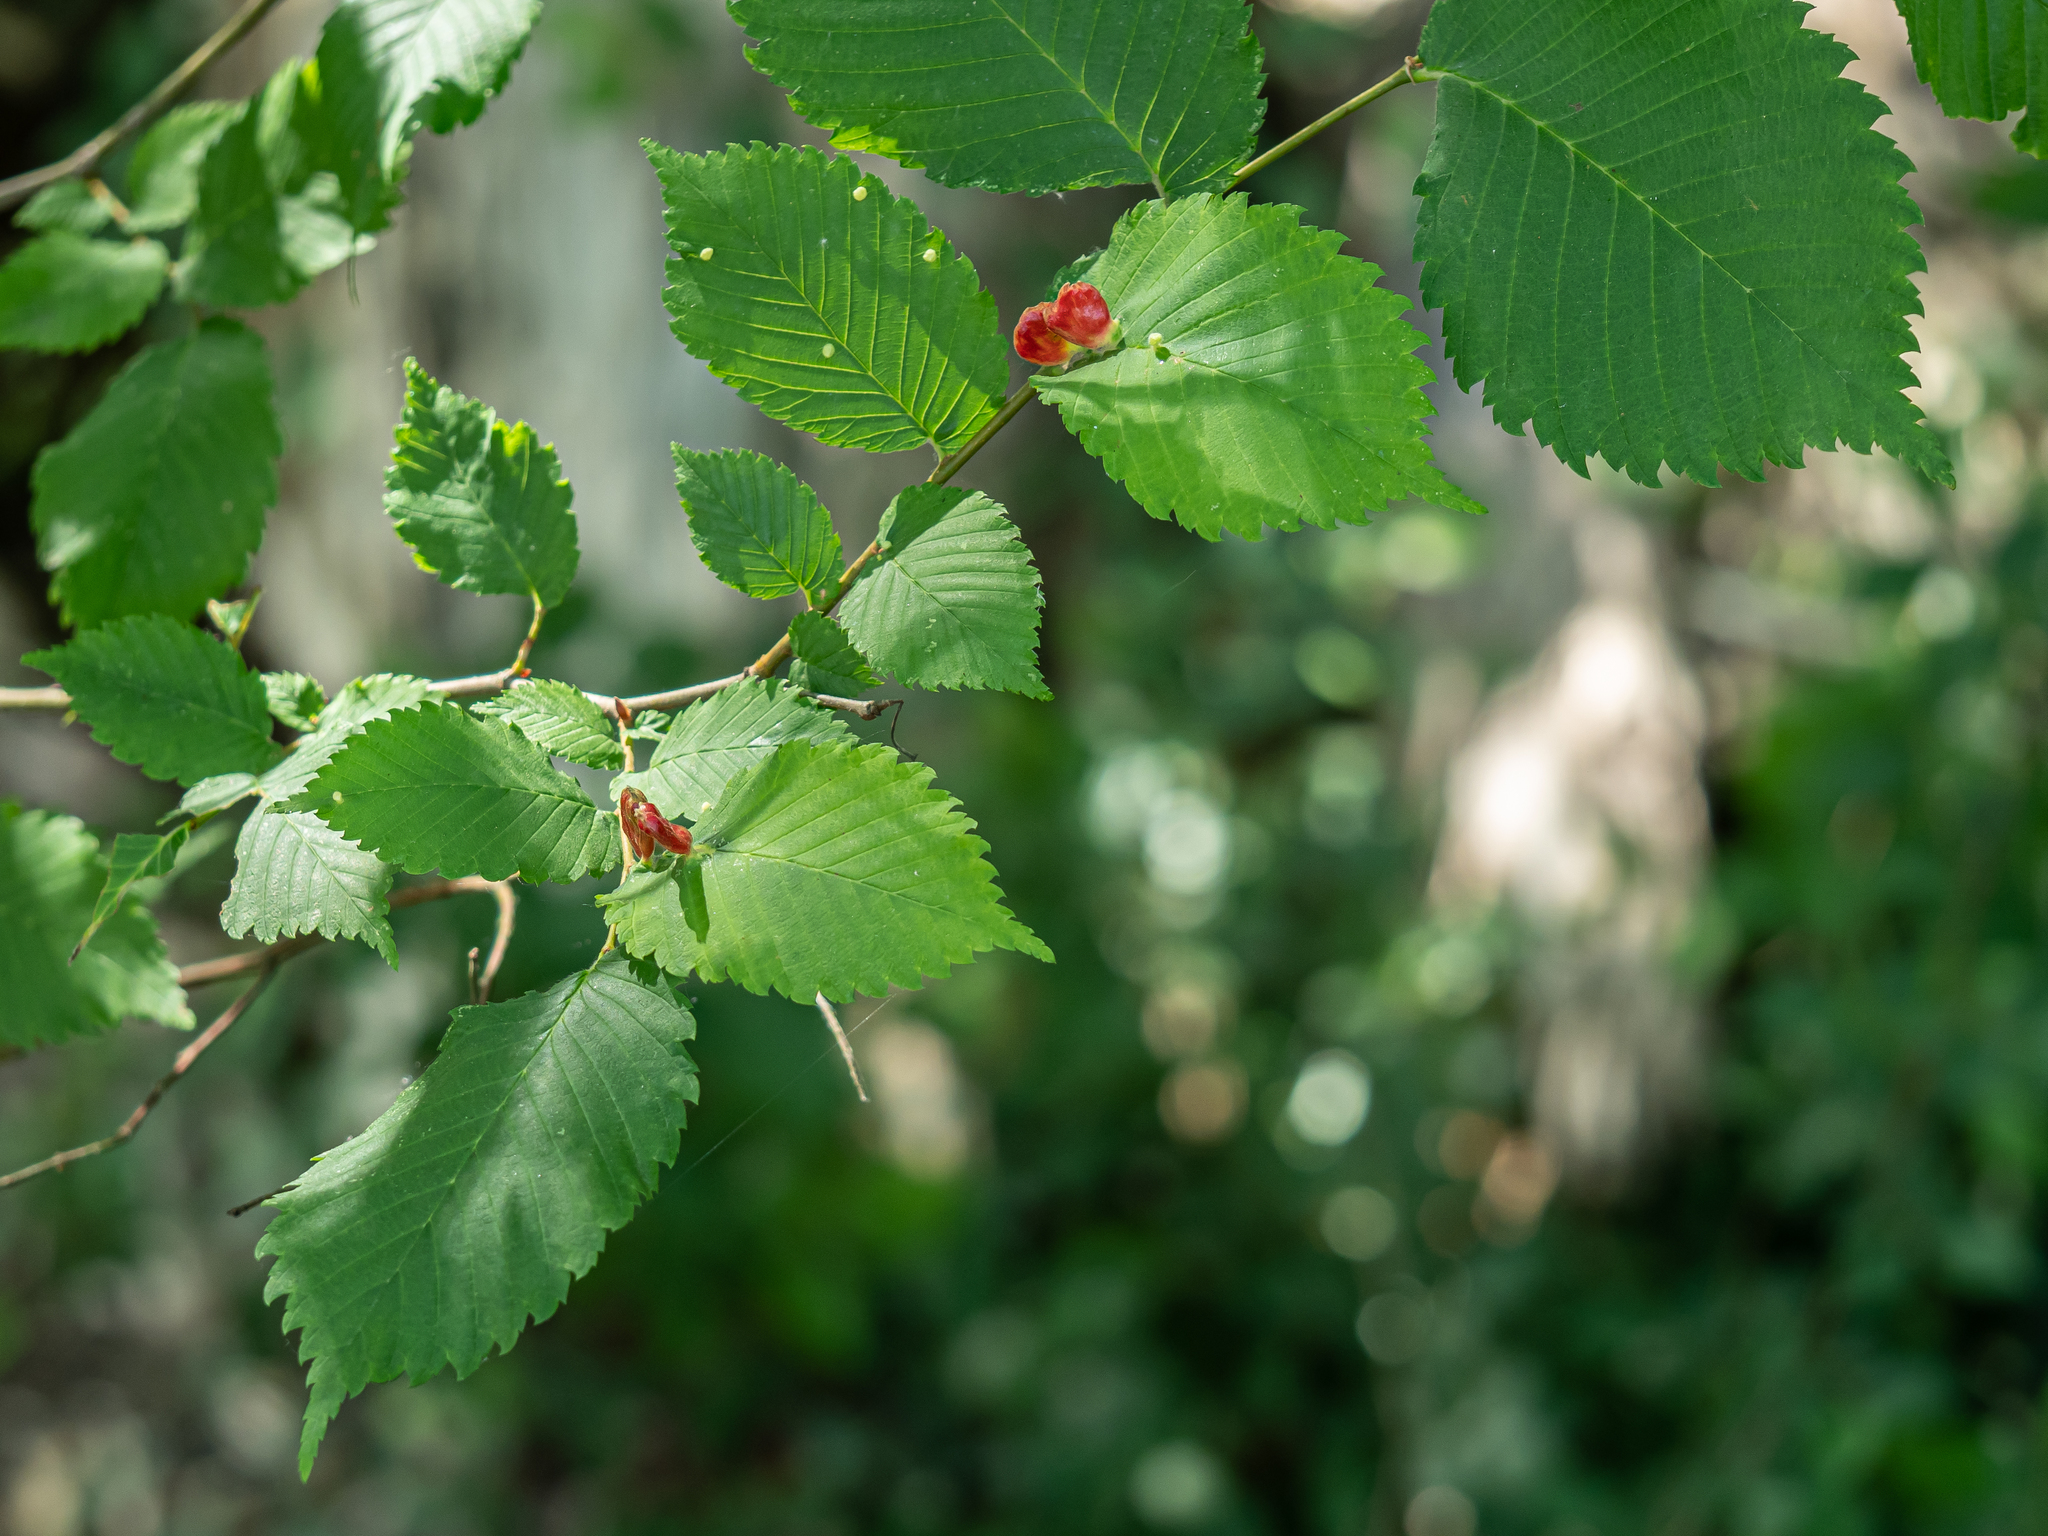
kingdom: Animalia
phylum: Arthropoda
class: Insecta
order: Hemiptera
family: Aphididae
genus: Colopha
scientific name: Colopha compressa
